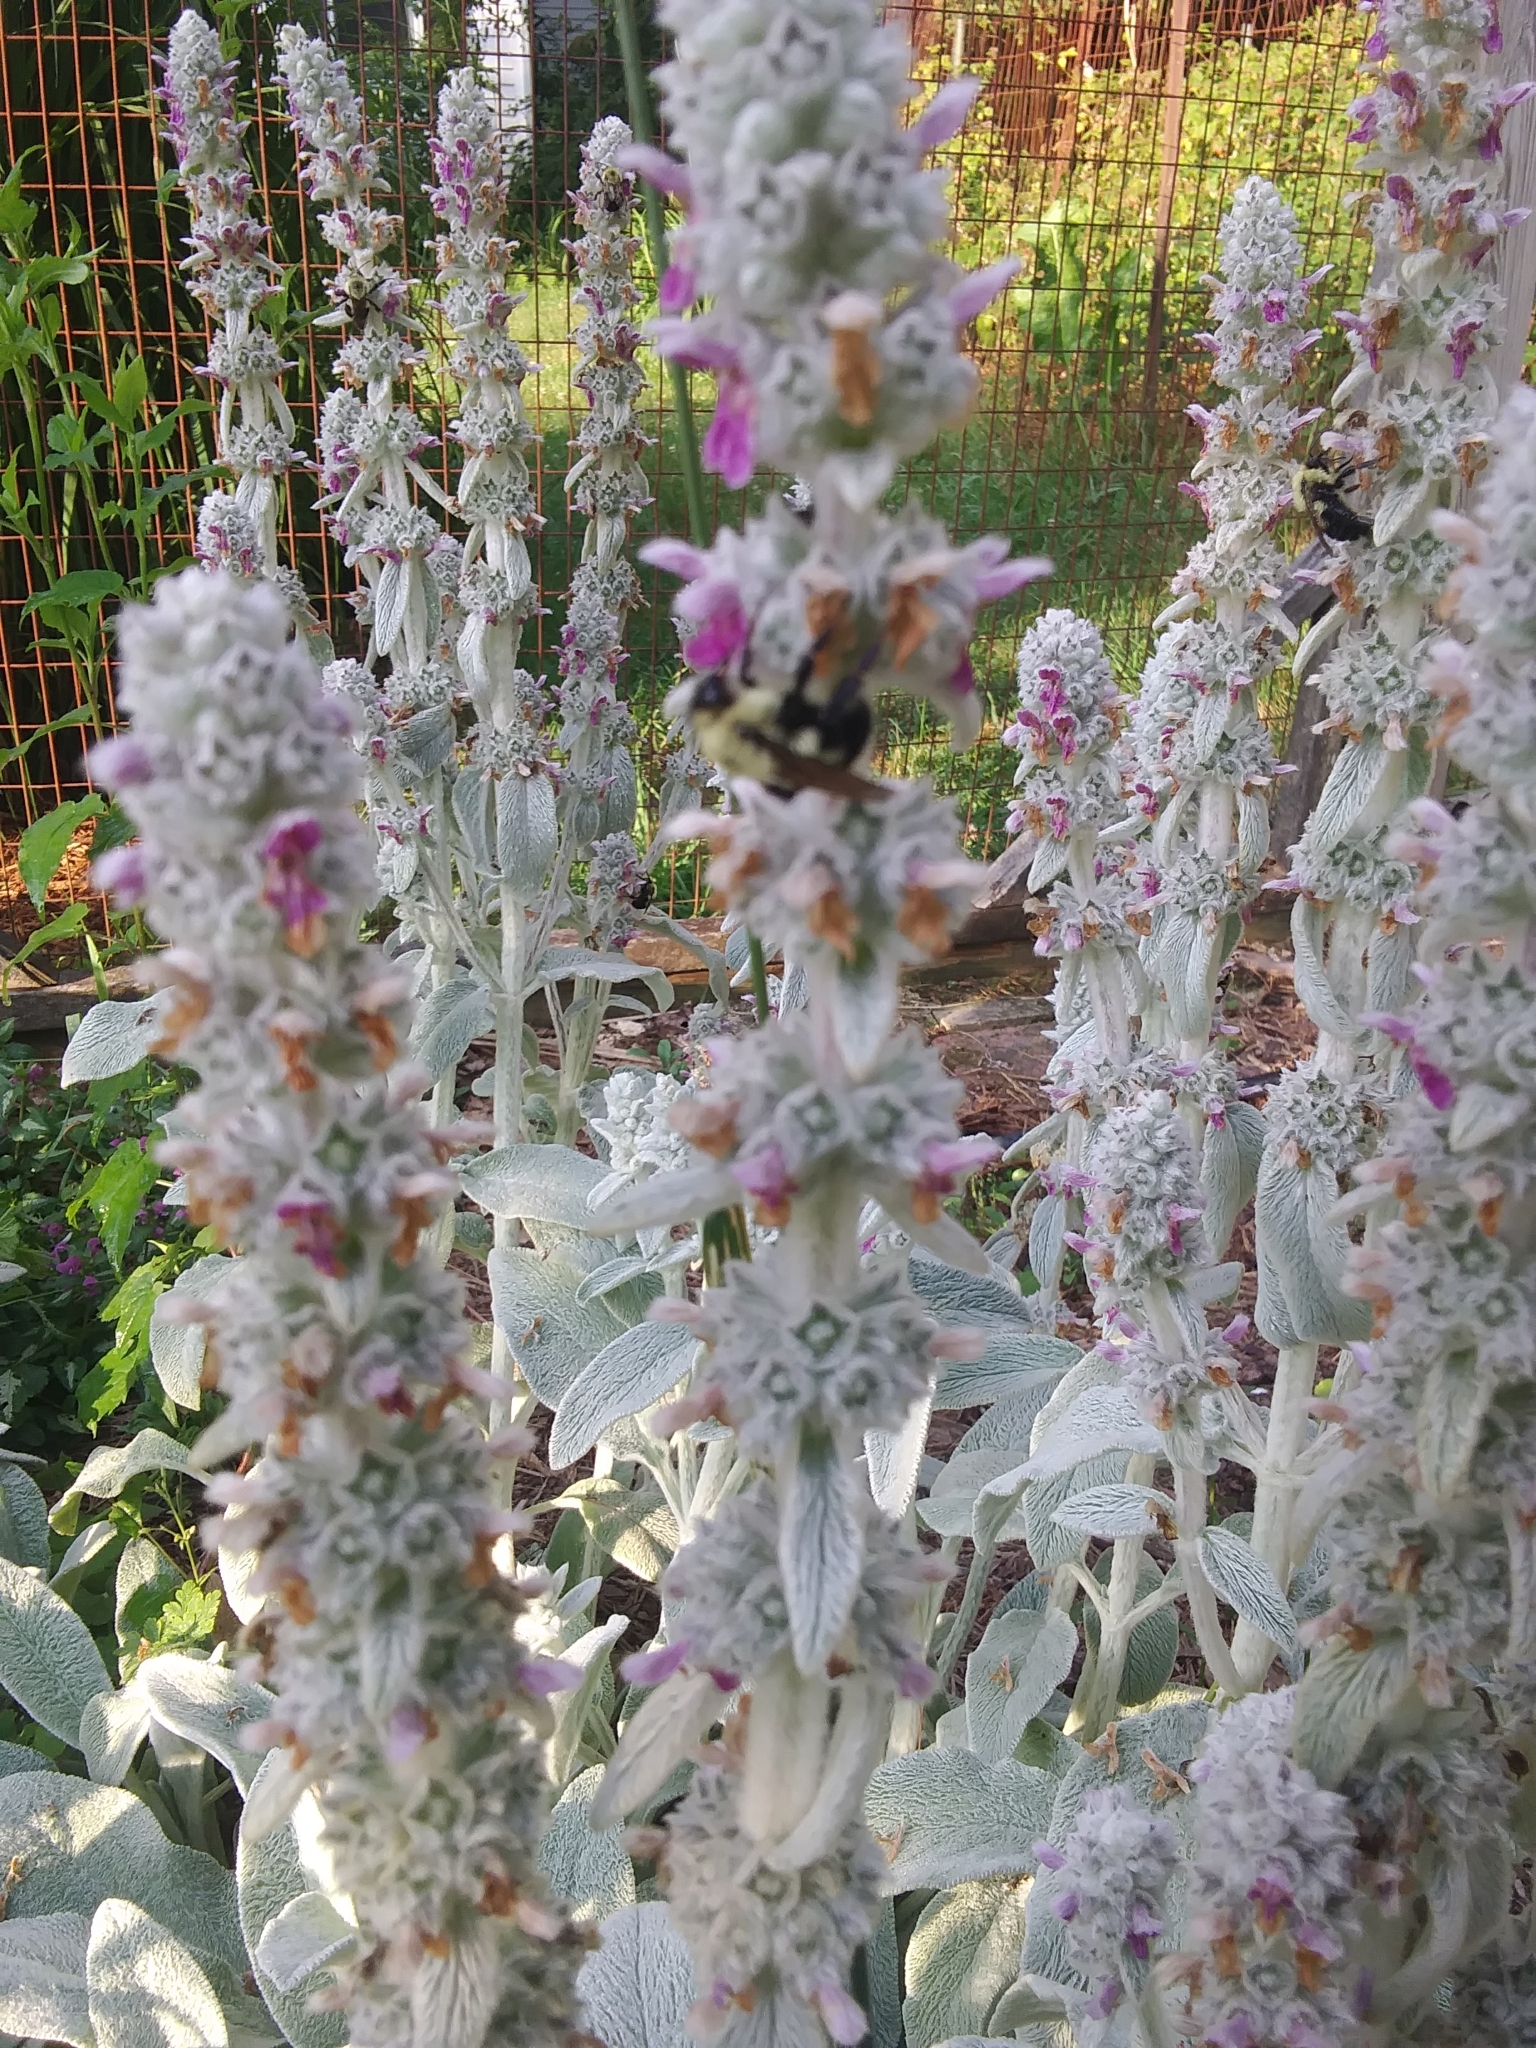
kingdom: Animalia
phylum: Arthropoda
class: Insecta
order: Hymenoptera
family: Apidae
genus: Bombus
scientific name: Bombus bimaculatus
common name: Two-spotted bumble bee
